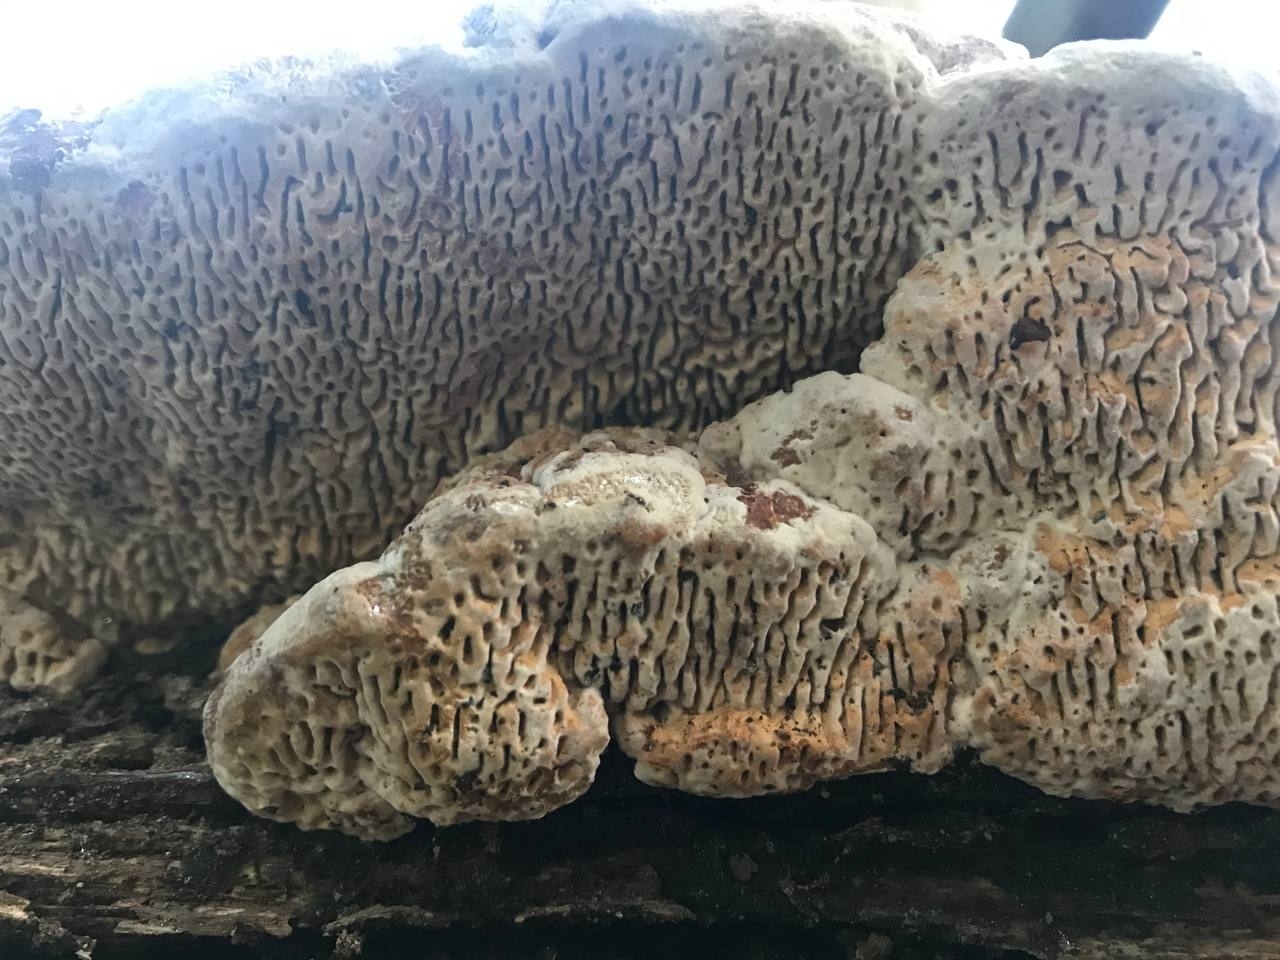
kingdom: Fungi
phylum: Basidiomycota
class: Agaricomycetes
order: Polyporales
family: Fomitopsidaceae
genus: Fomitopsis
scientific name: Fomitopsis
